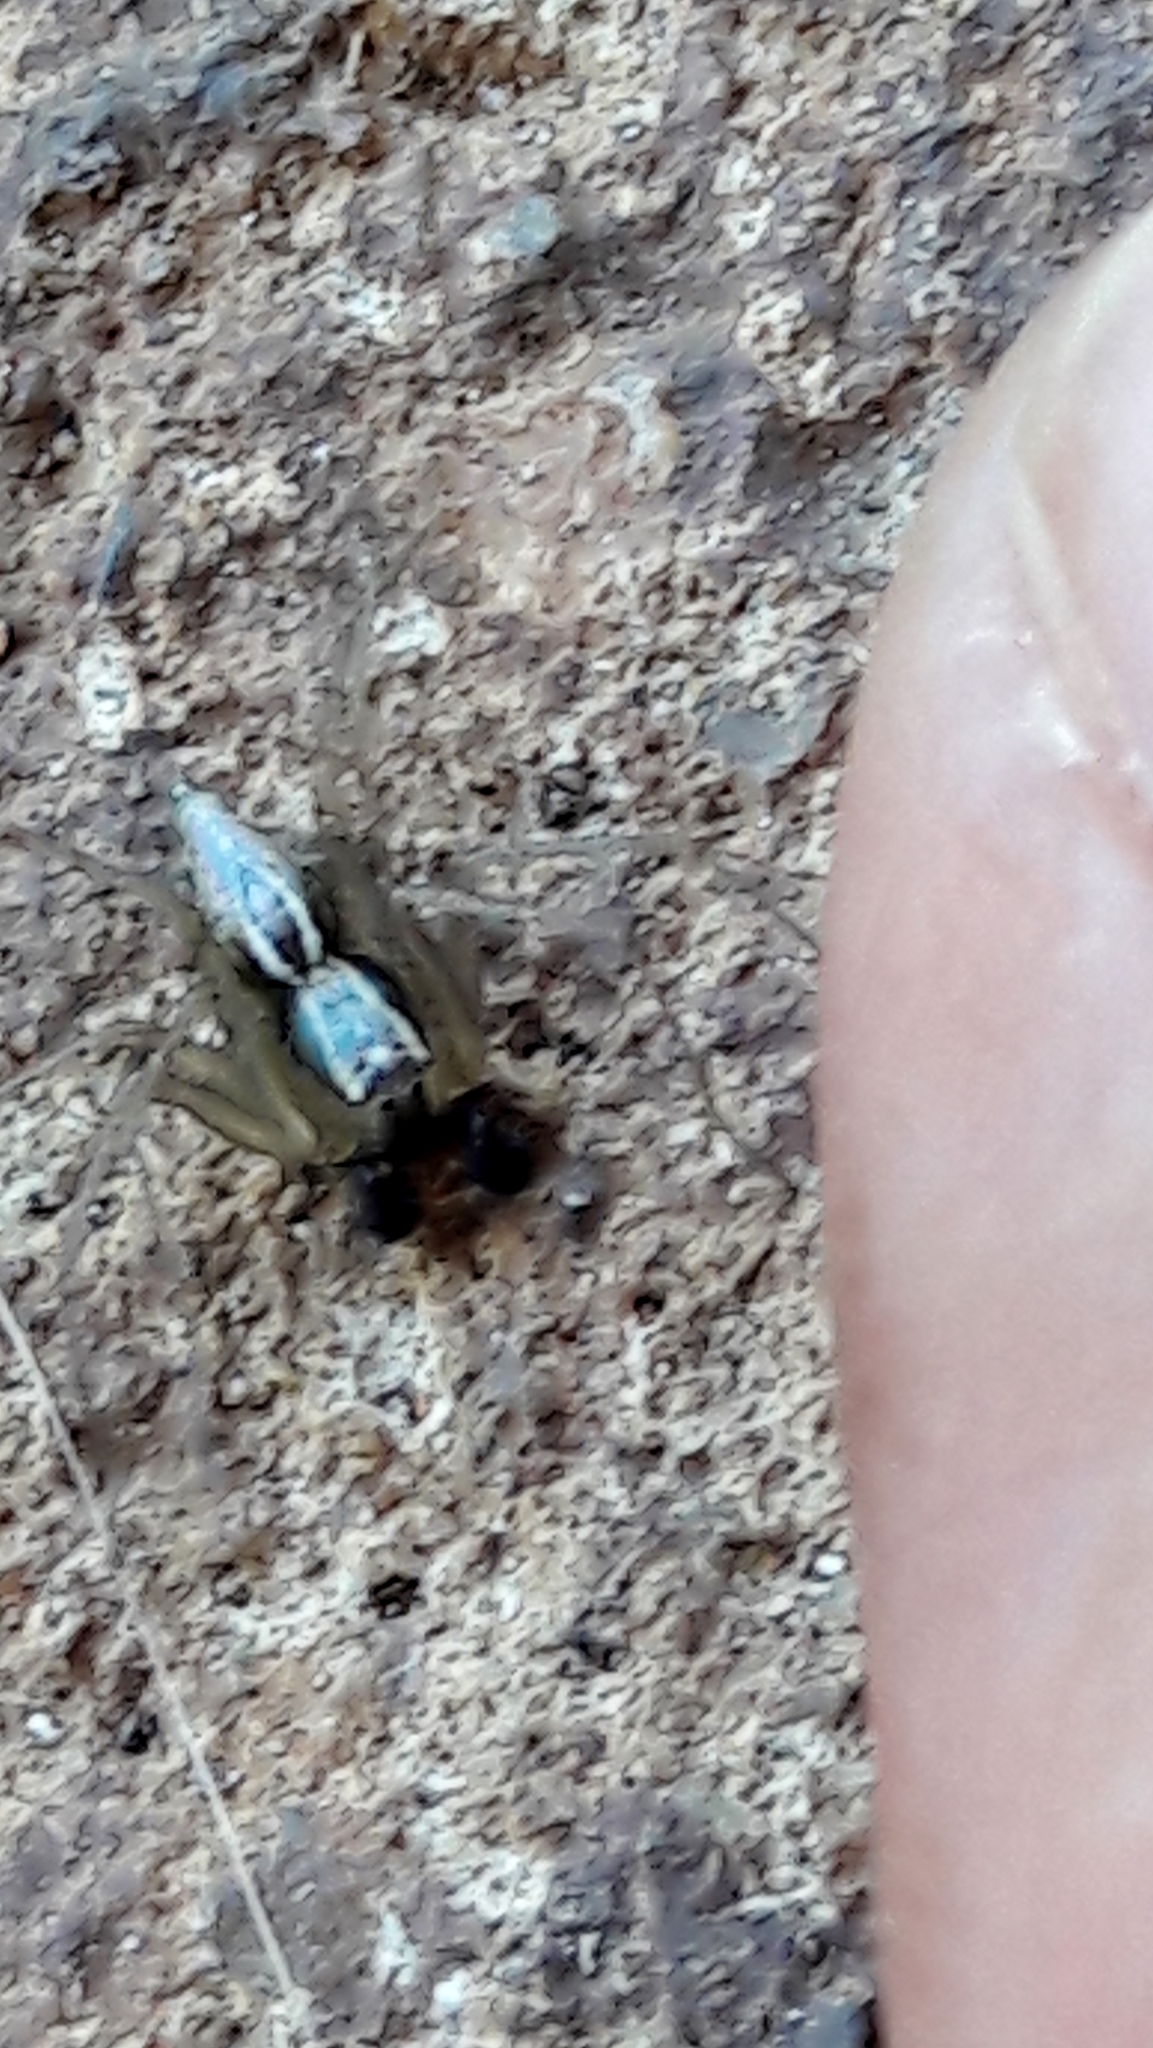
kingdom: Animalia
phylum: Arthropoda
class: Arachnida
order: Araneae
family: Oxyopidae
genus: Oxyopes
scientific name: Oxyopes salticus
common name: Lynx spiders
